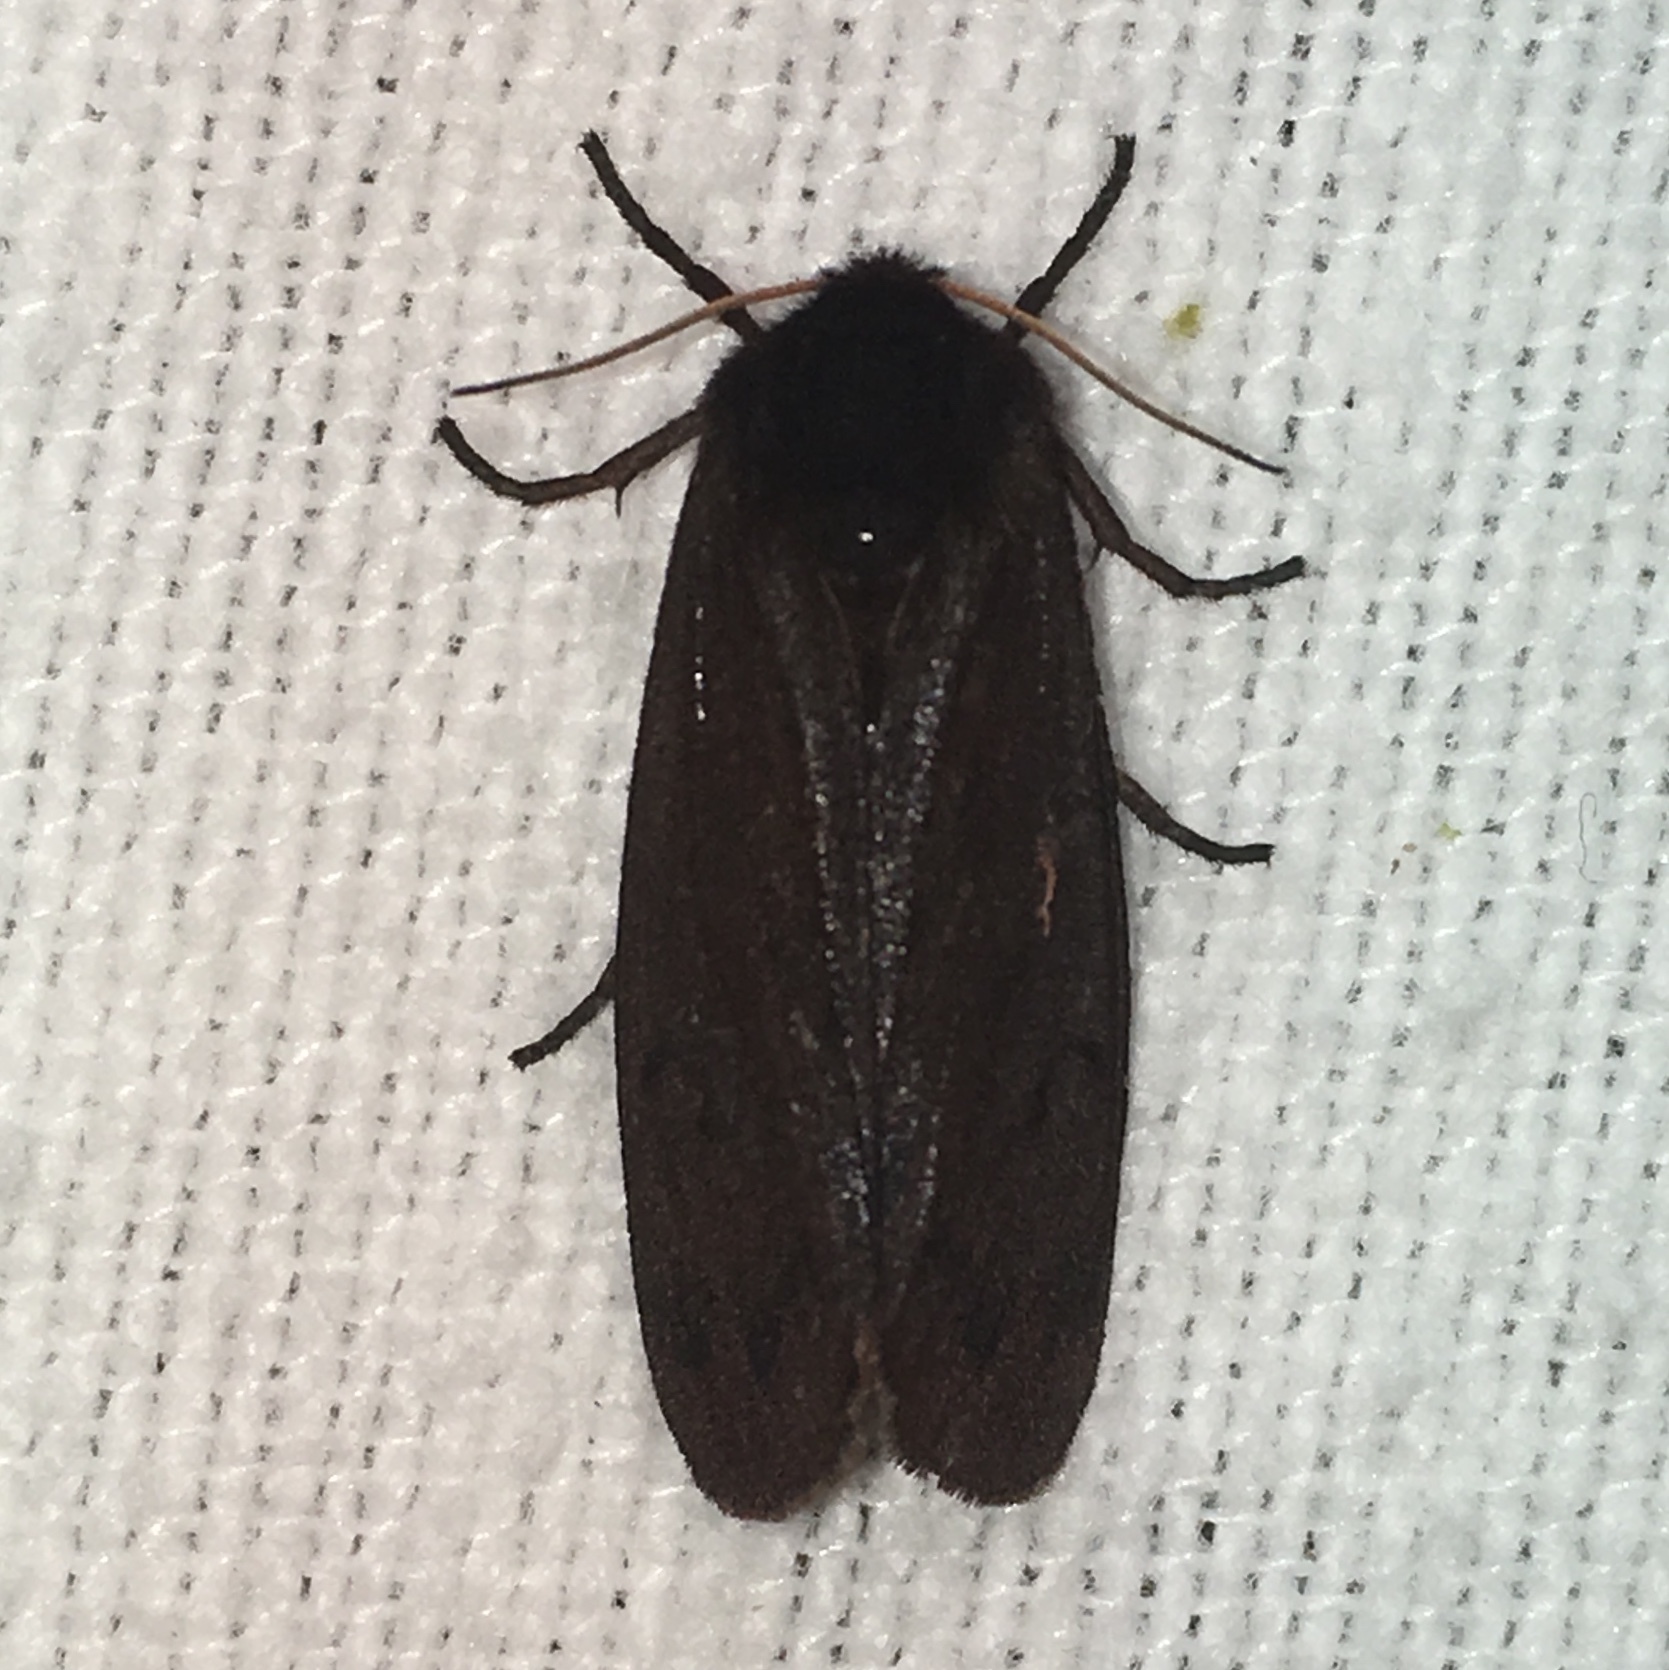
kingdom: Animalia
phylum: Arthropoda
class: Insecta
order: Lepidoptera
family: Erebidae
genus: Phragmatobia
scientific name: Phragmatobia fuliginosa
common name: Ruby tiger
